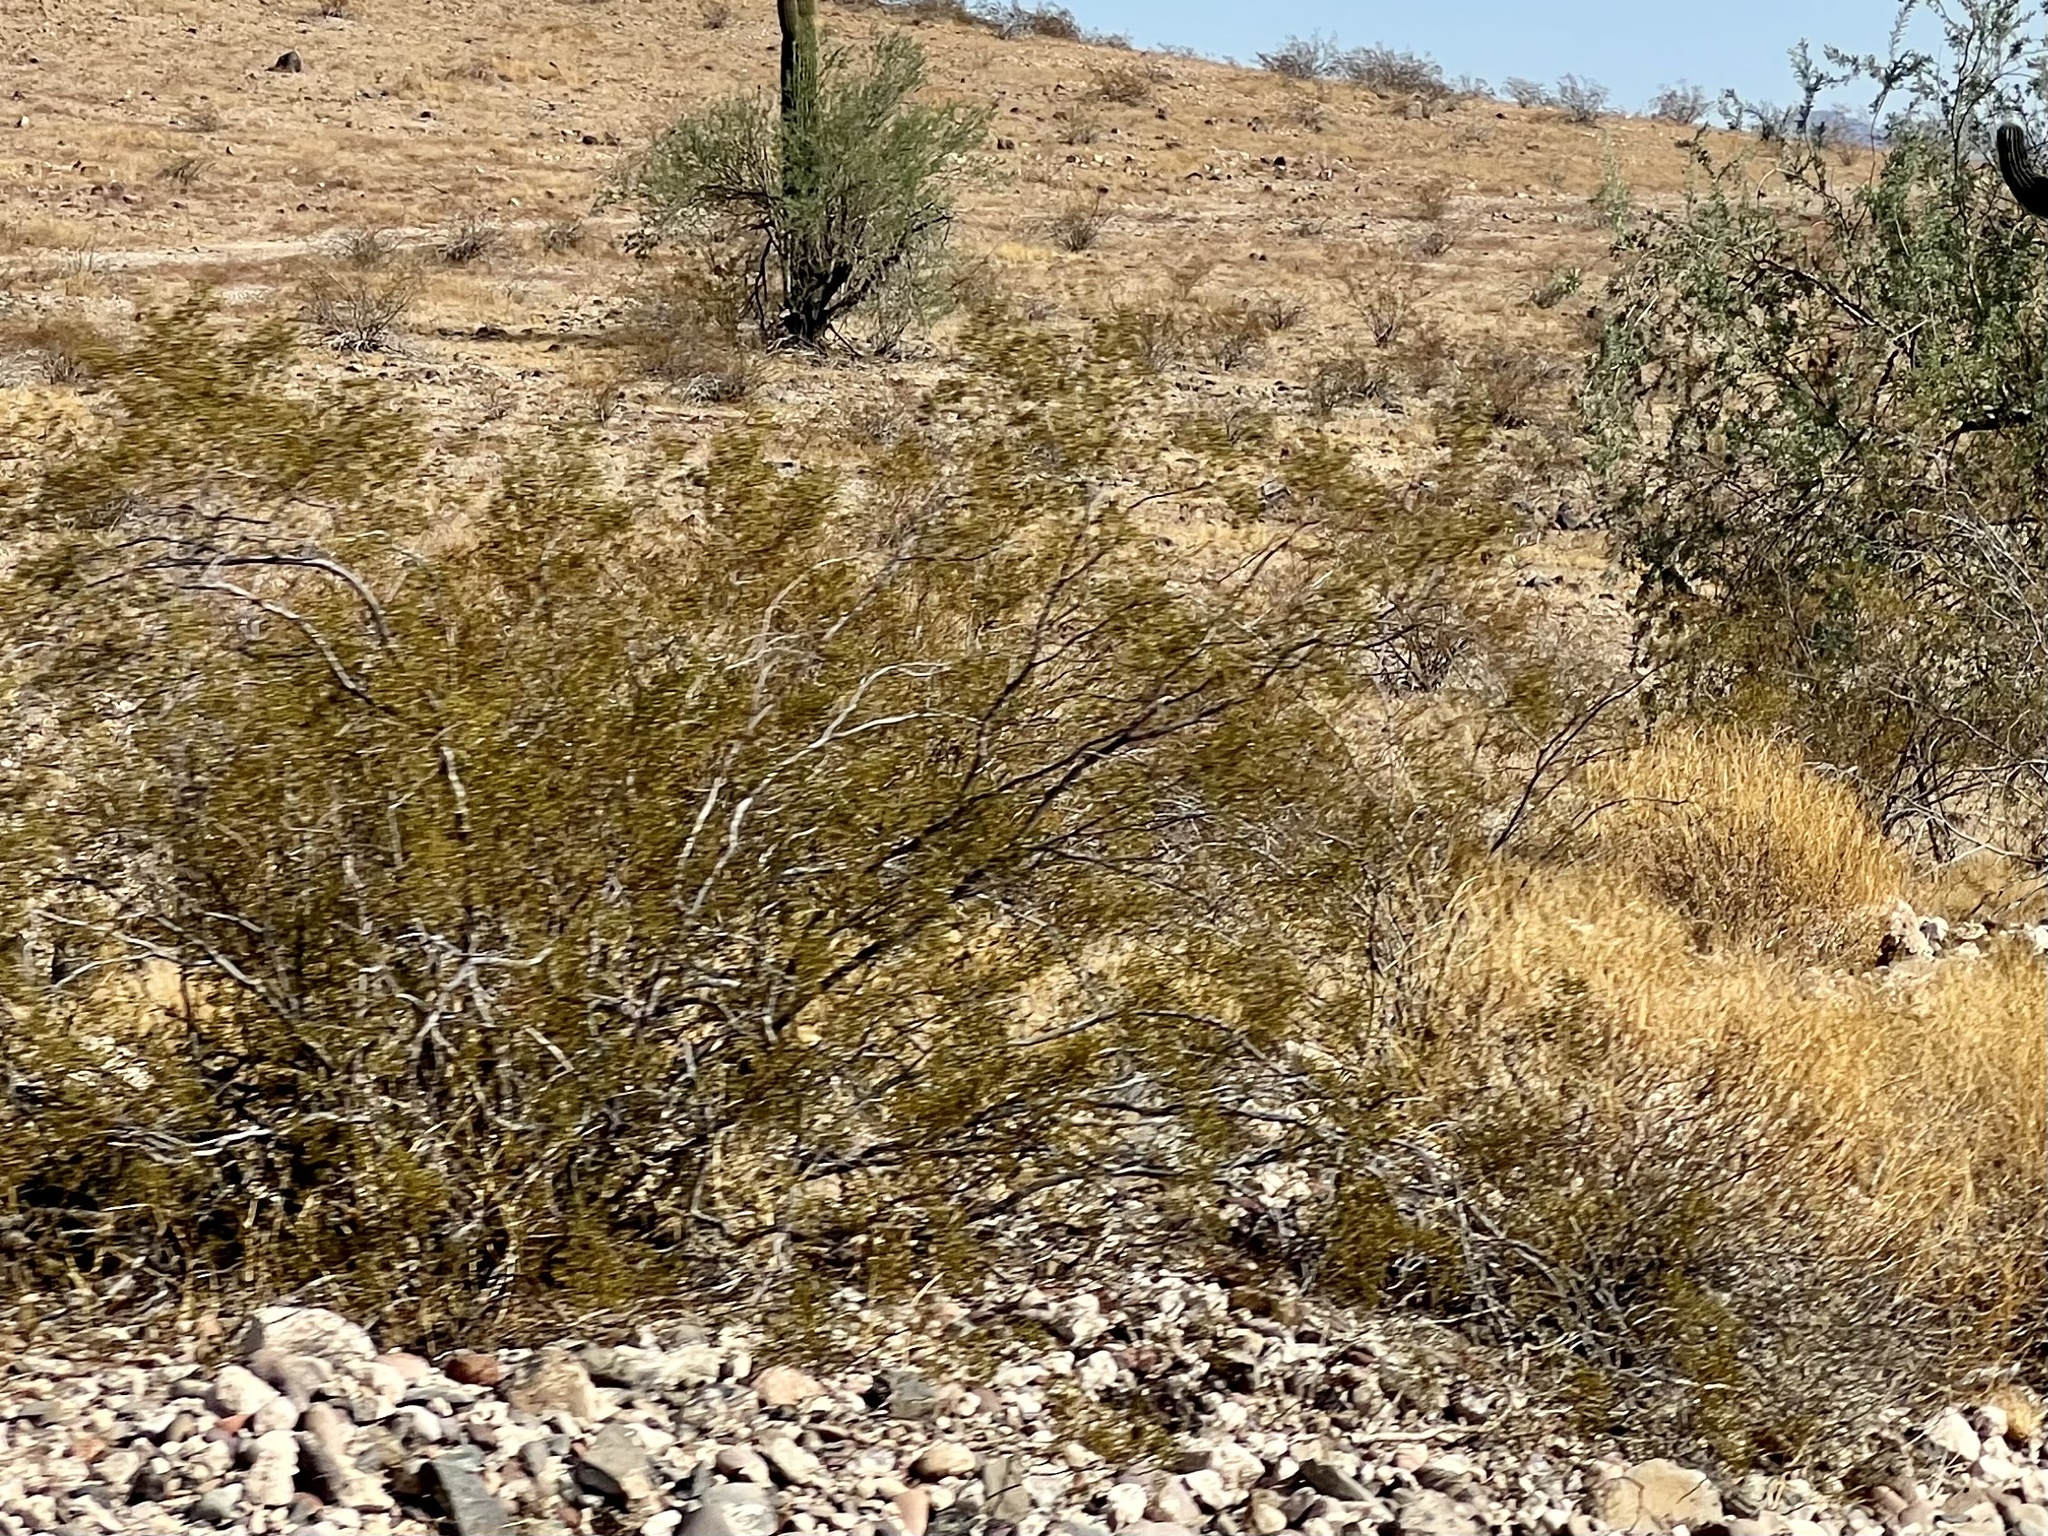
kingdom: Plantae
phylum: Tracheophyta
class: Magnoliopsida
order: Zygophyllales
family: Zygophyllaceae
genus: Larrea
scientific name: Larrea tridentata
